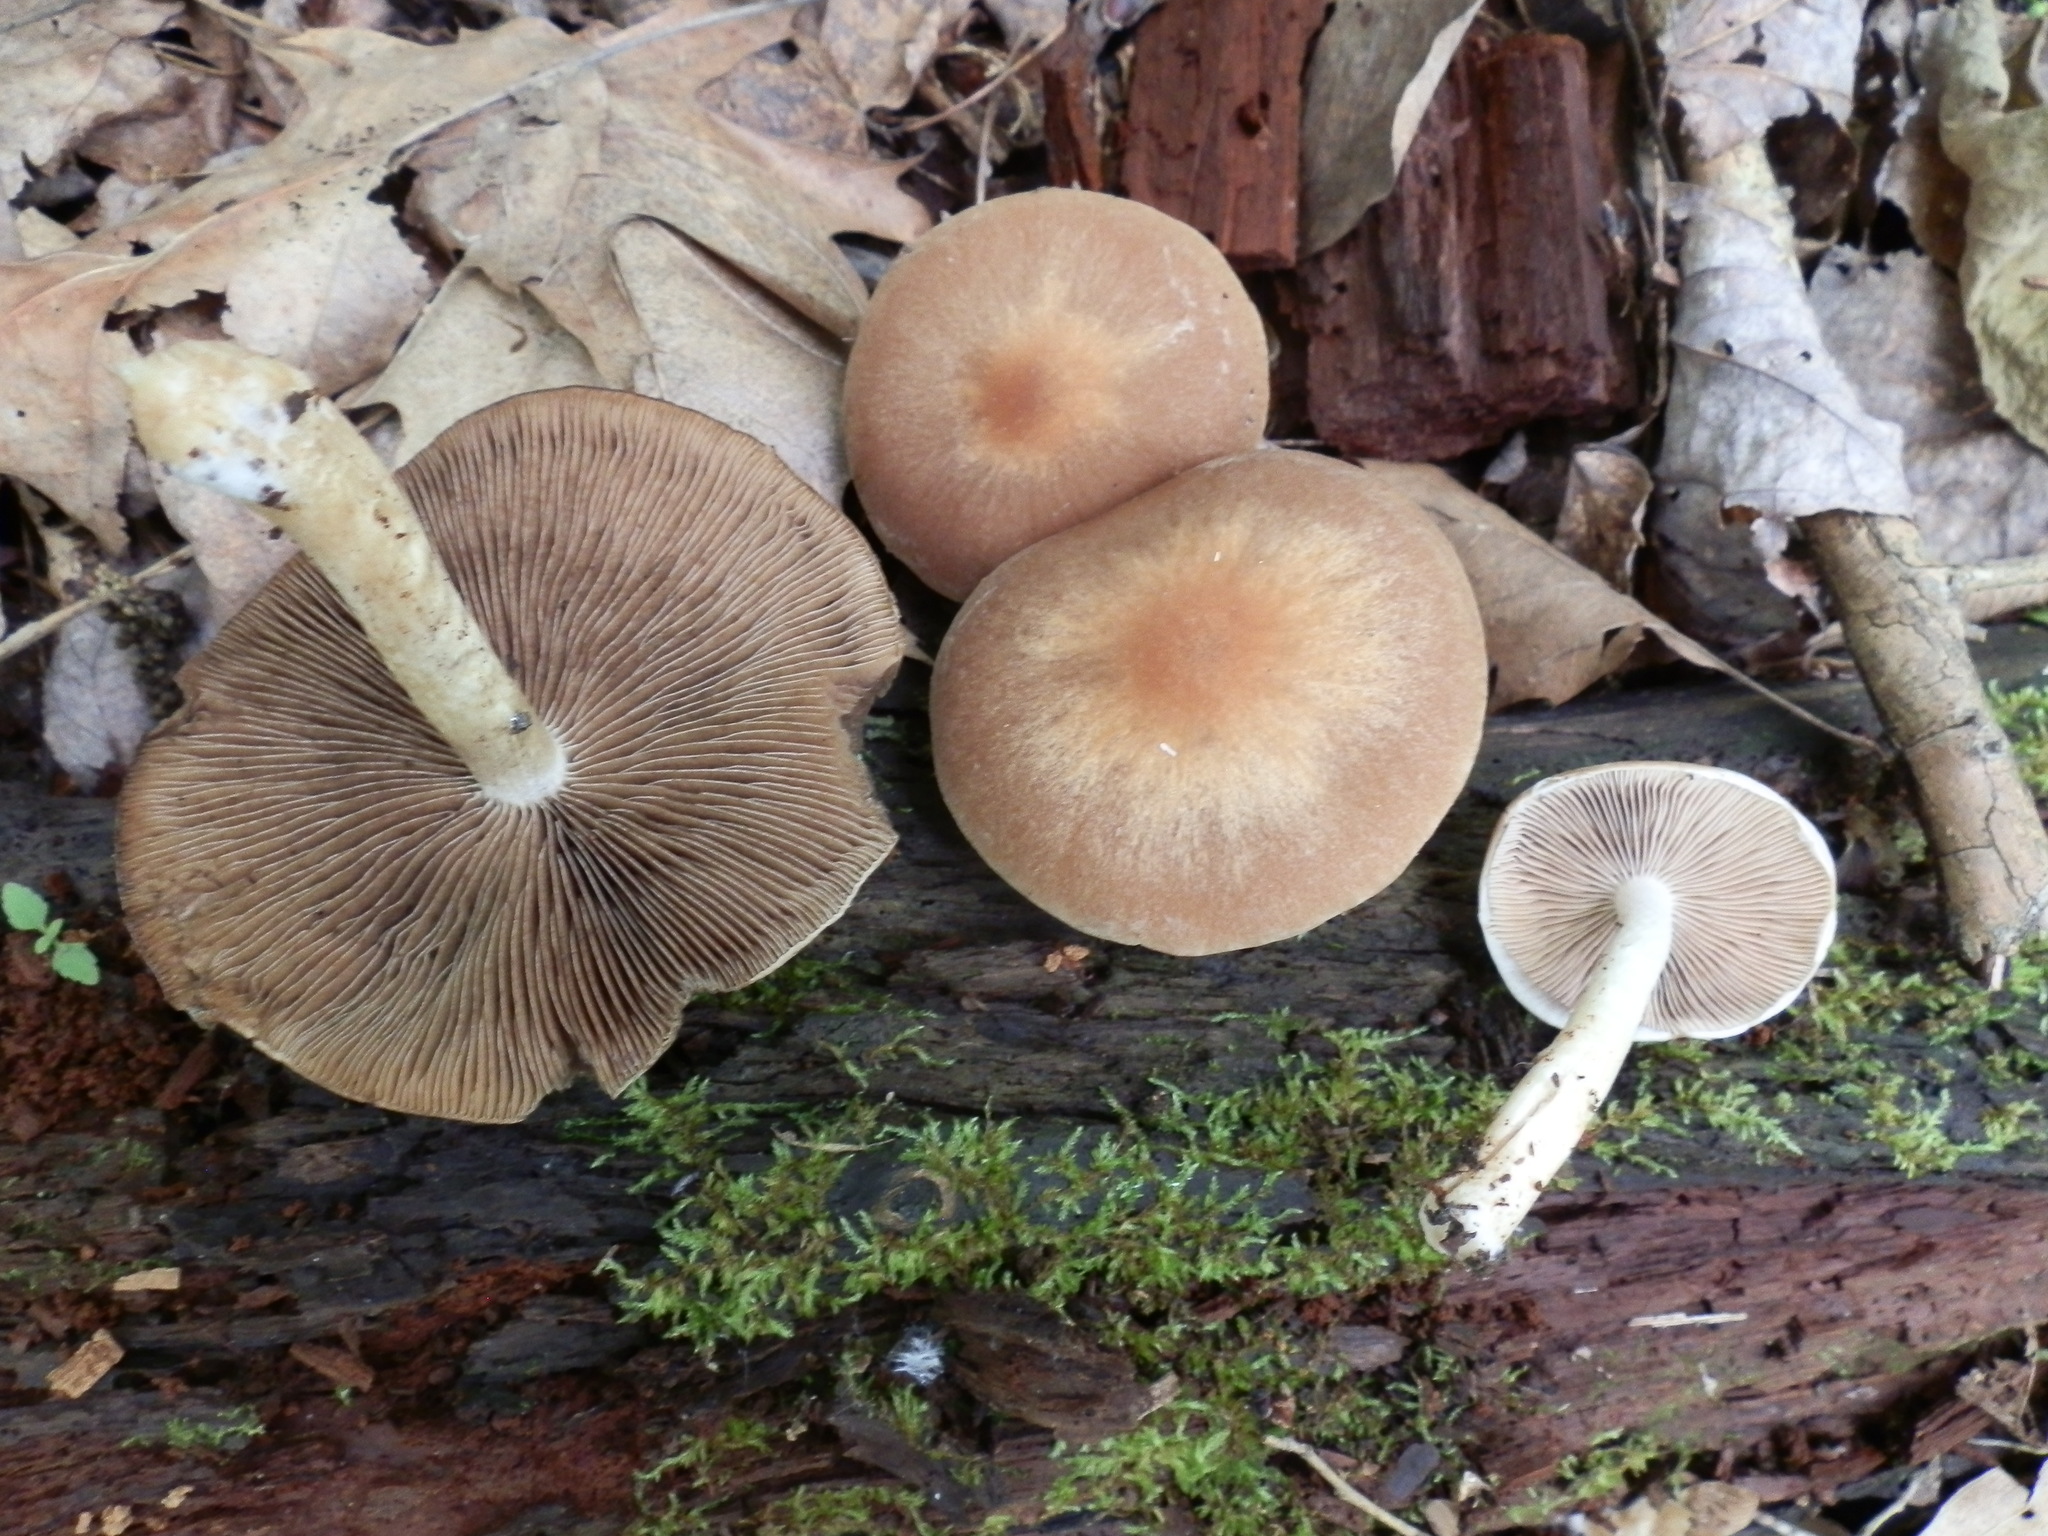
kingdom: Fungi
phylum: Basidiomycota
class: Agaricomycetes
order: Agaricales
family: Psathyrellaceae
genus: Psathyrella
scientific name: Psathyrella spadiceogrisea
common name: Spring brittlestem
